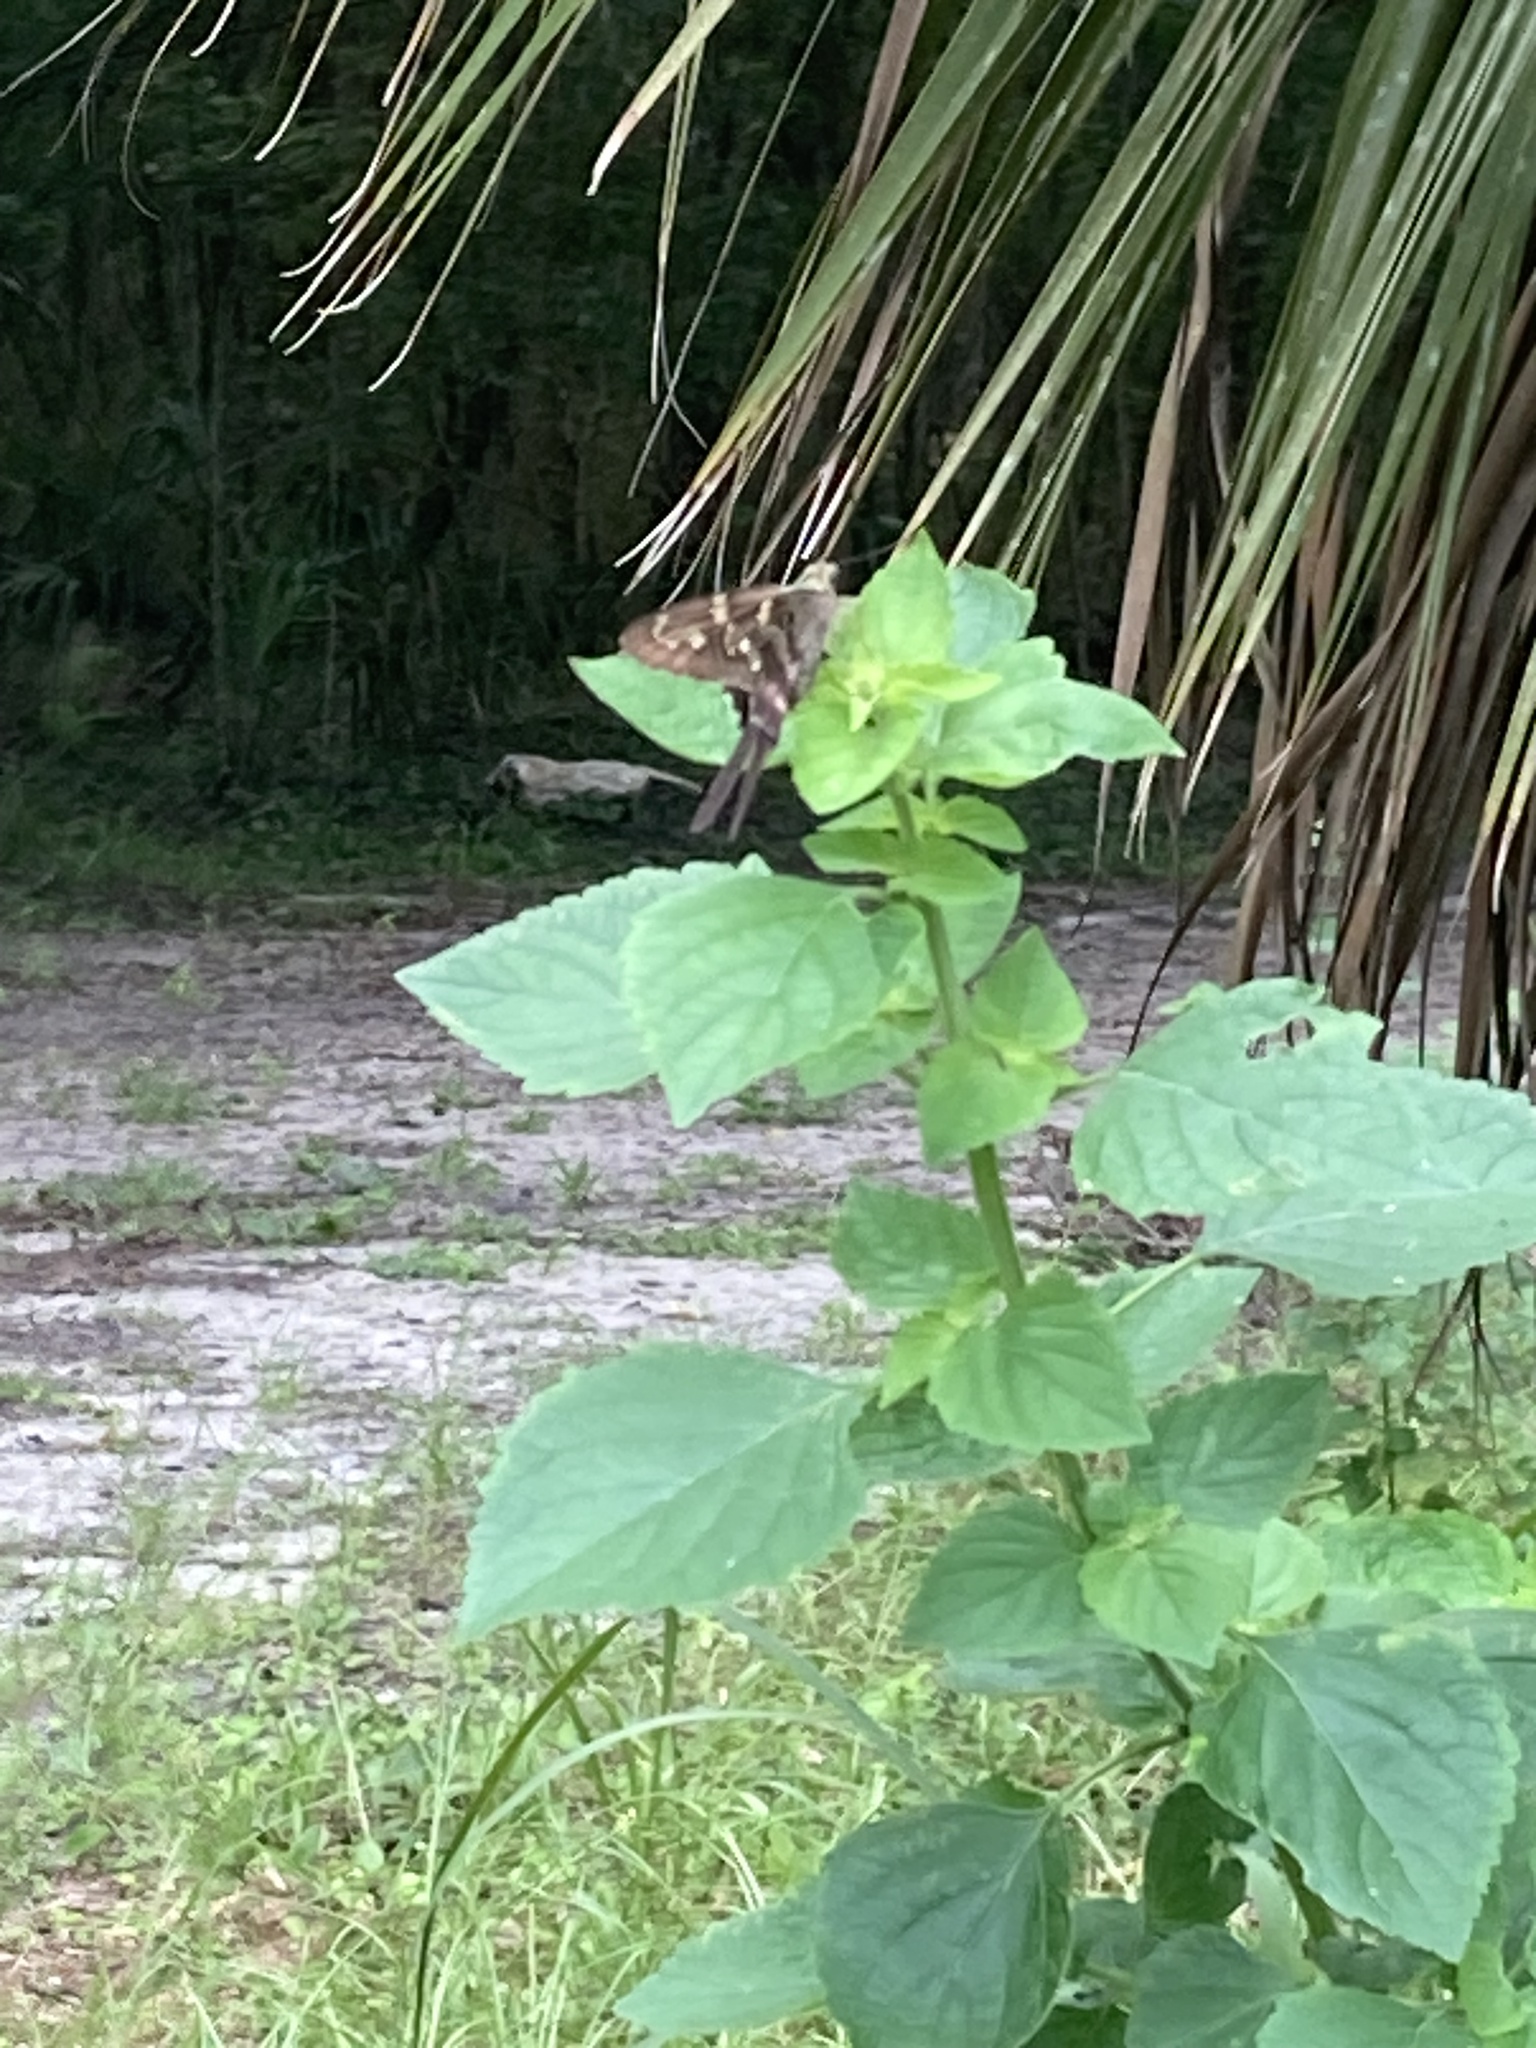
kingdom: Animalia
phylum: Arthropoda
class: Insecta
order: Lepidoptera
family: Hesperiidae
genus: Urbanus
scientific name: Urbanus proteus
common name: Long-tailed skipper
